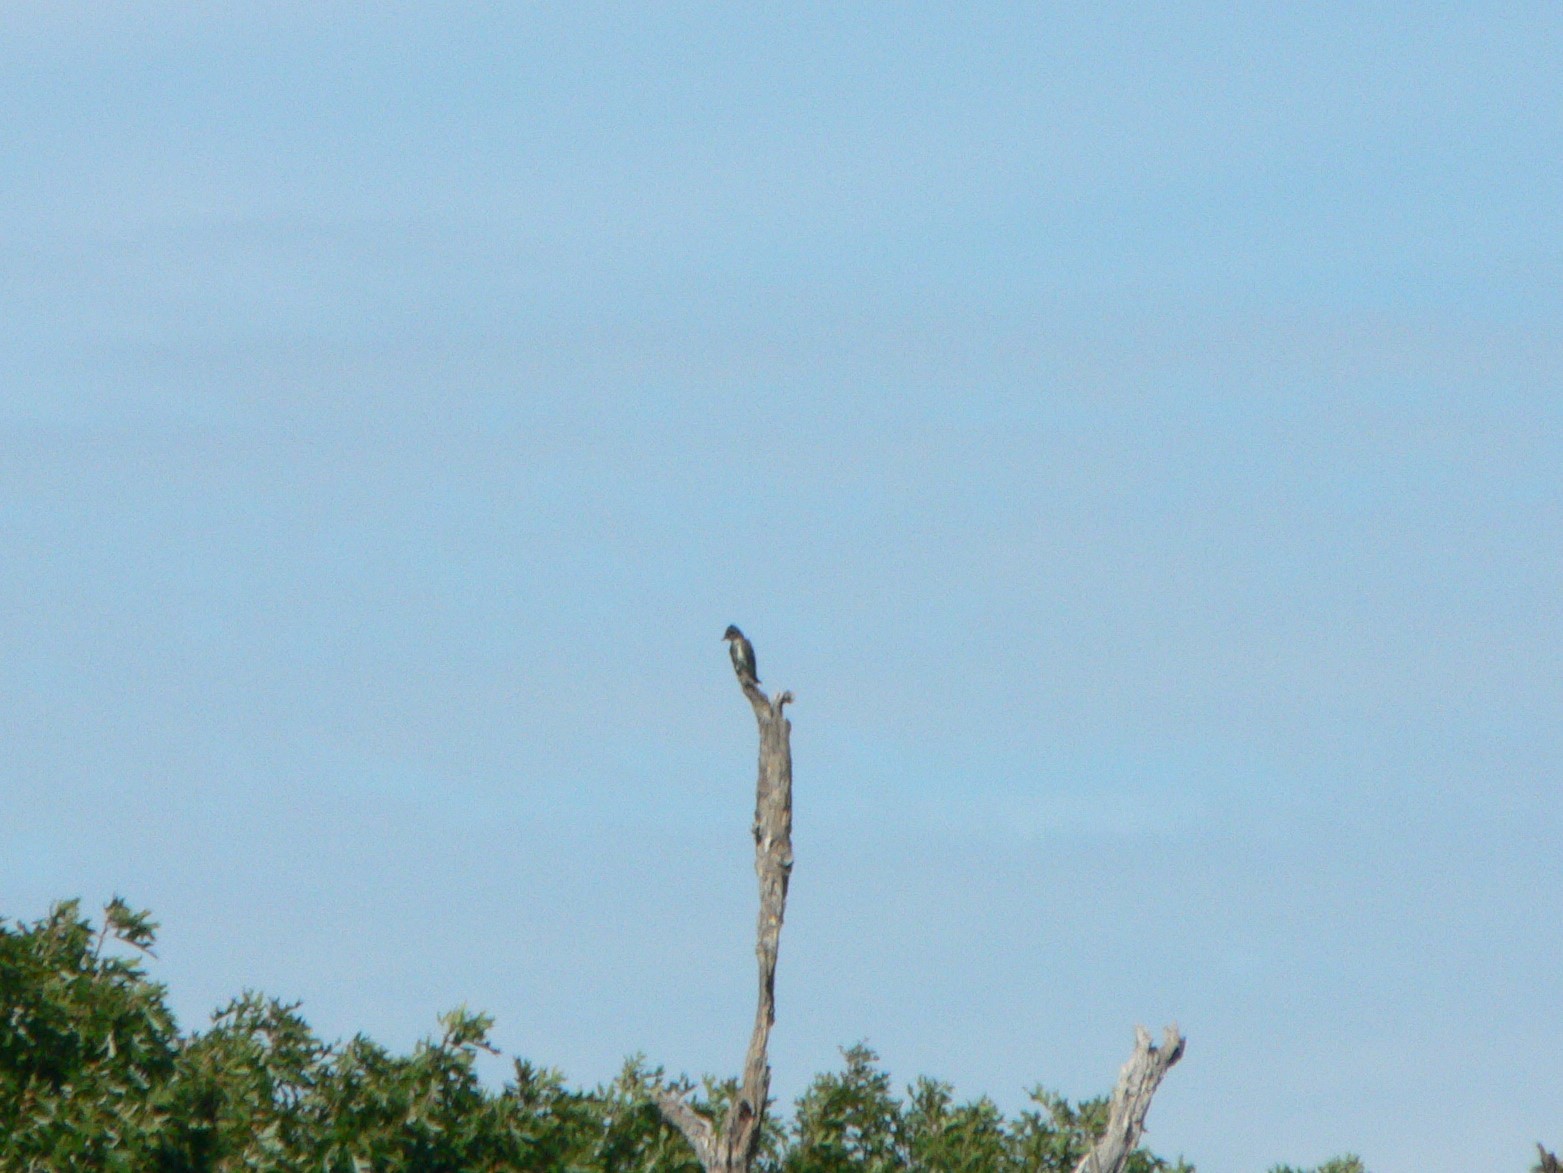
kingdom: Animalia
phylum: Chordata
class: Aves
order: Passeriformes
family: Tyrannidae
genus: Contopus
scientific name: Contopus cooperi
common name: Olive-sided flycatcher
